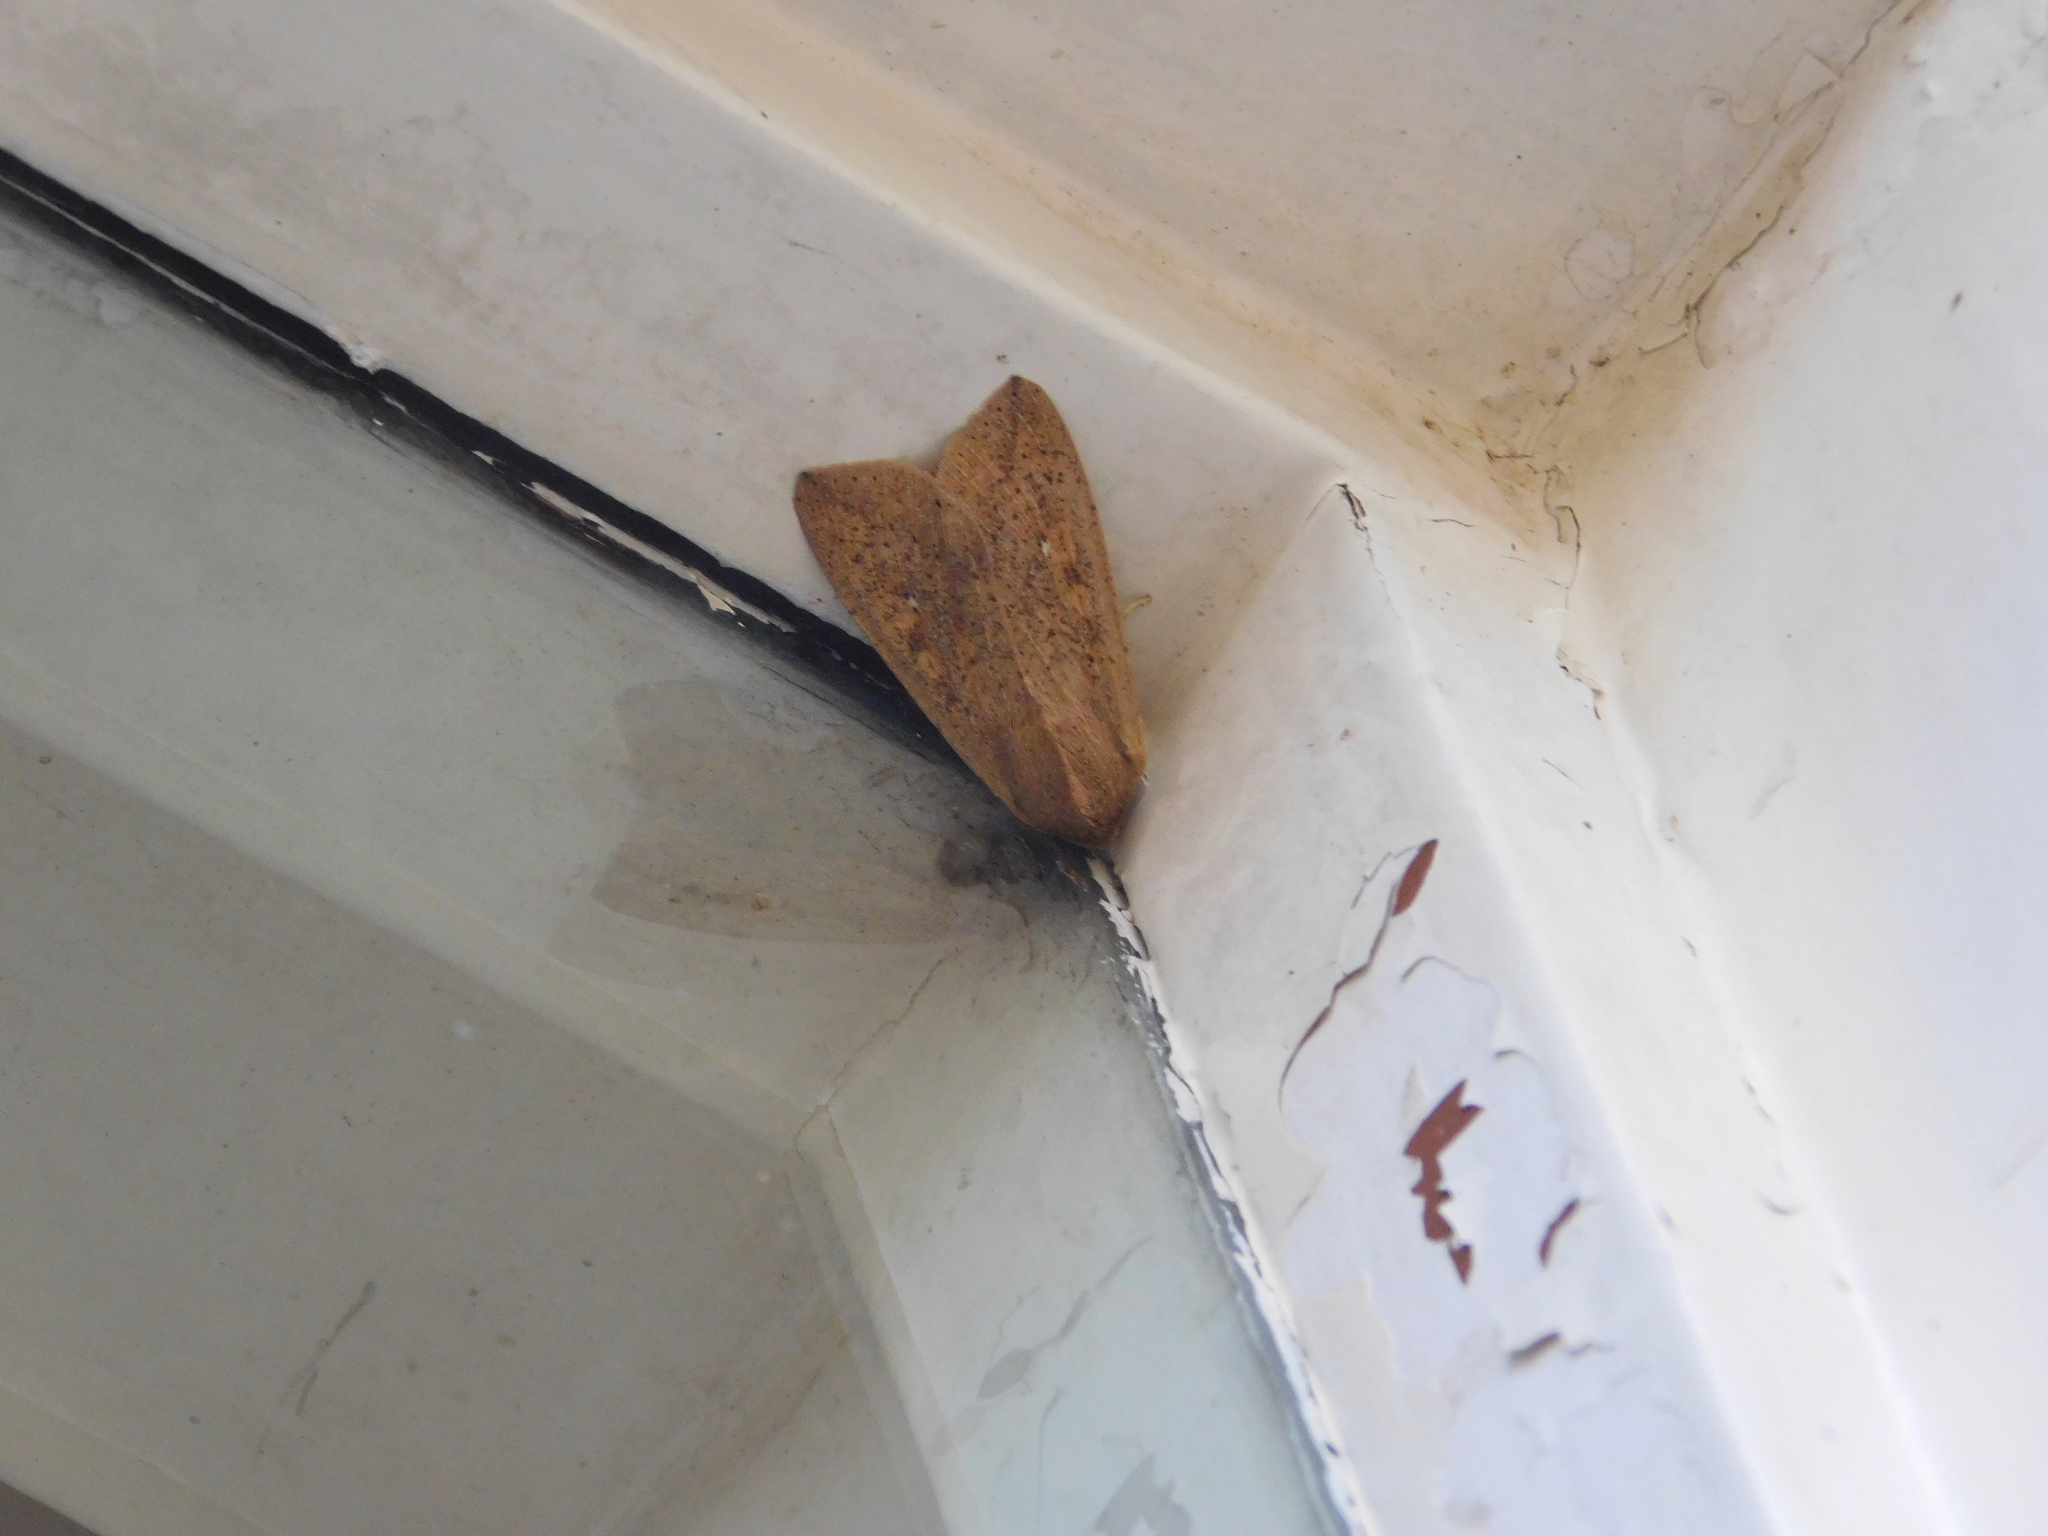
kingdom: Animalia
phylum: Arthropoda
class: Insecta
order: Lepidoptera
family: Noctuidae
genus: Mythimna
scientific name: Mythimna separata
